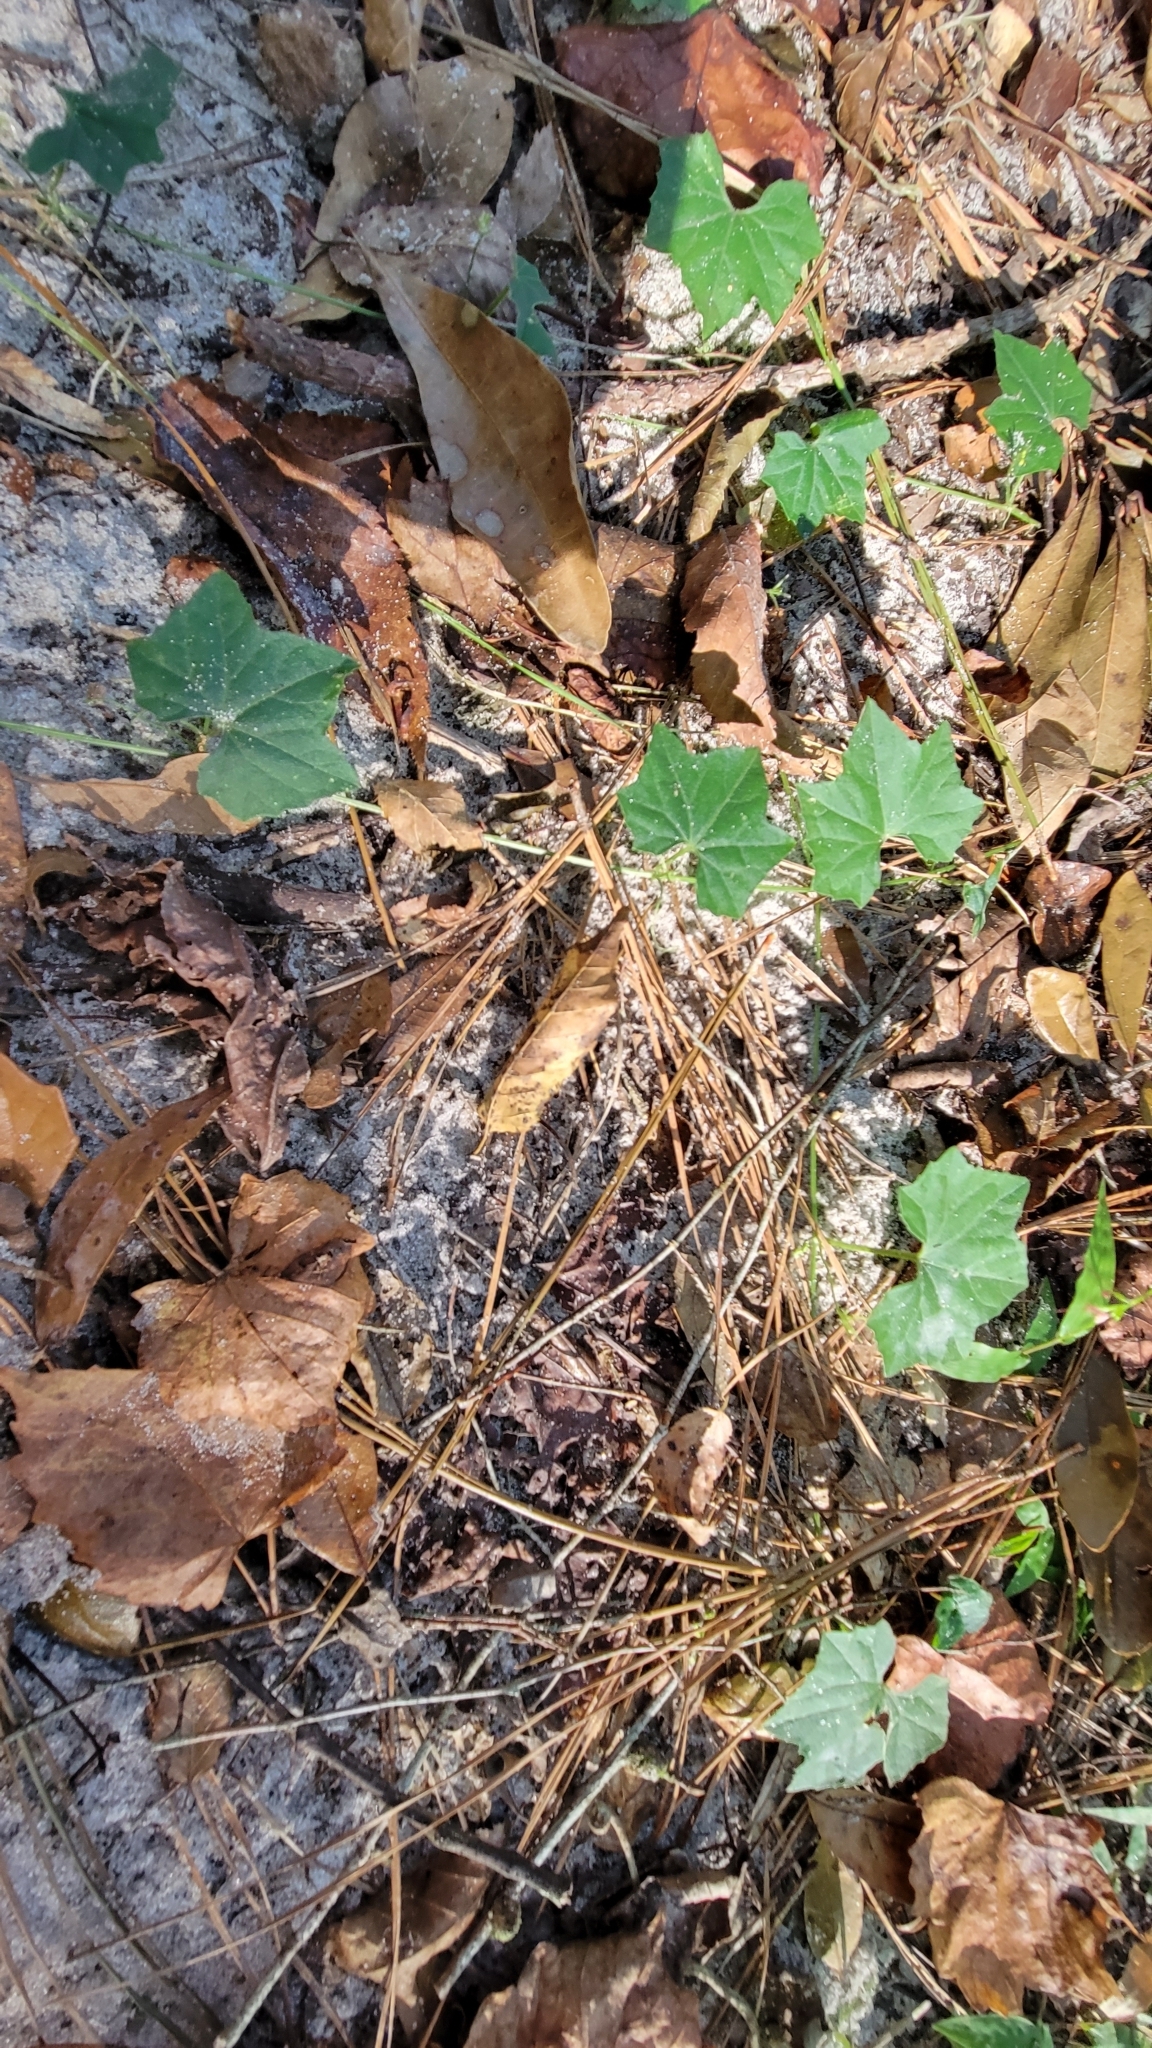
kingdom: Plantae
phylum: Tracheophyta
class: Magnoliopsida
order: Cucurbitales
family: Cucurbitaceae
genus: Melothria
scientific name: Melothria pendula
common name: Creeping-cucumber
